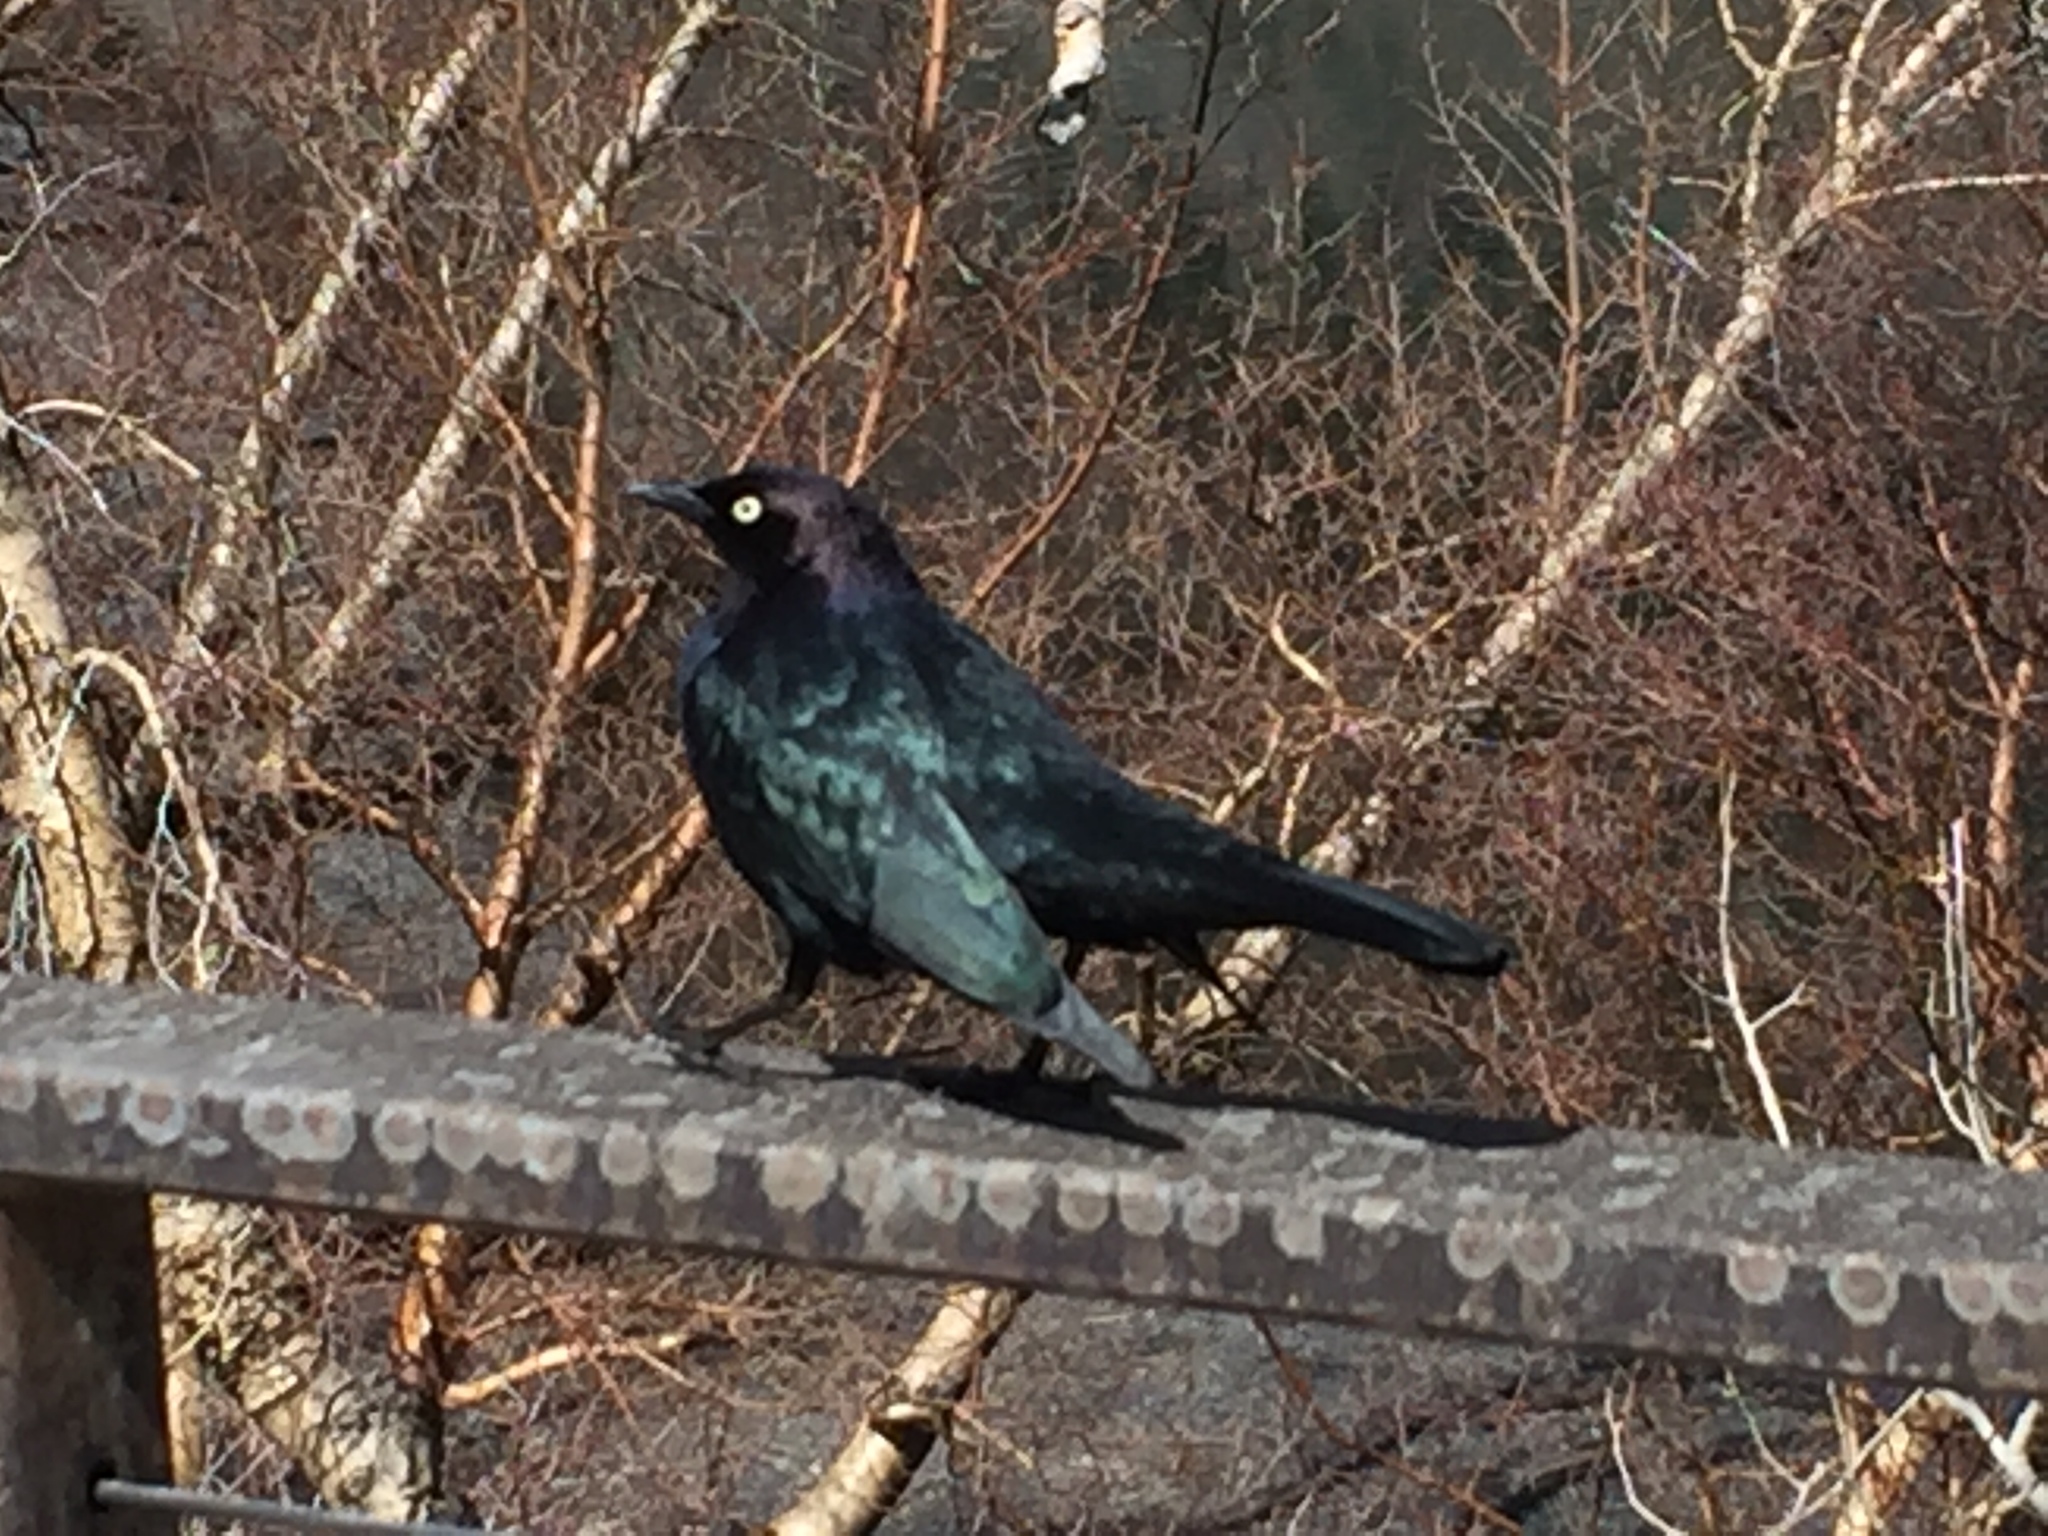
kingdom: Animalia
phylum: Chordata
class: Aves
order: Passeriformes
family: Icteridae
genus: Euphagus
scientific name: Euphagus cyanocephalus
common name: Brewer's blackbird
